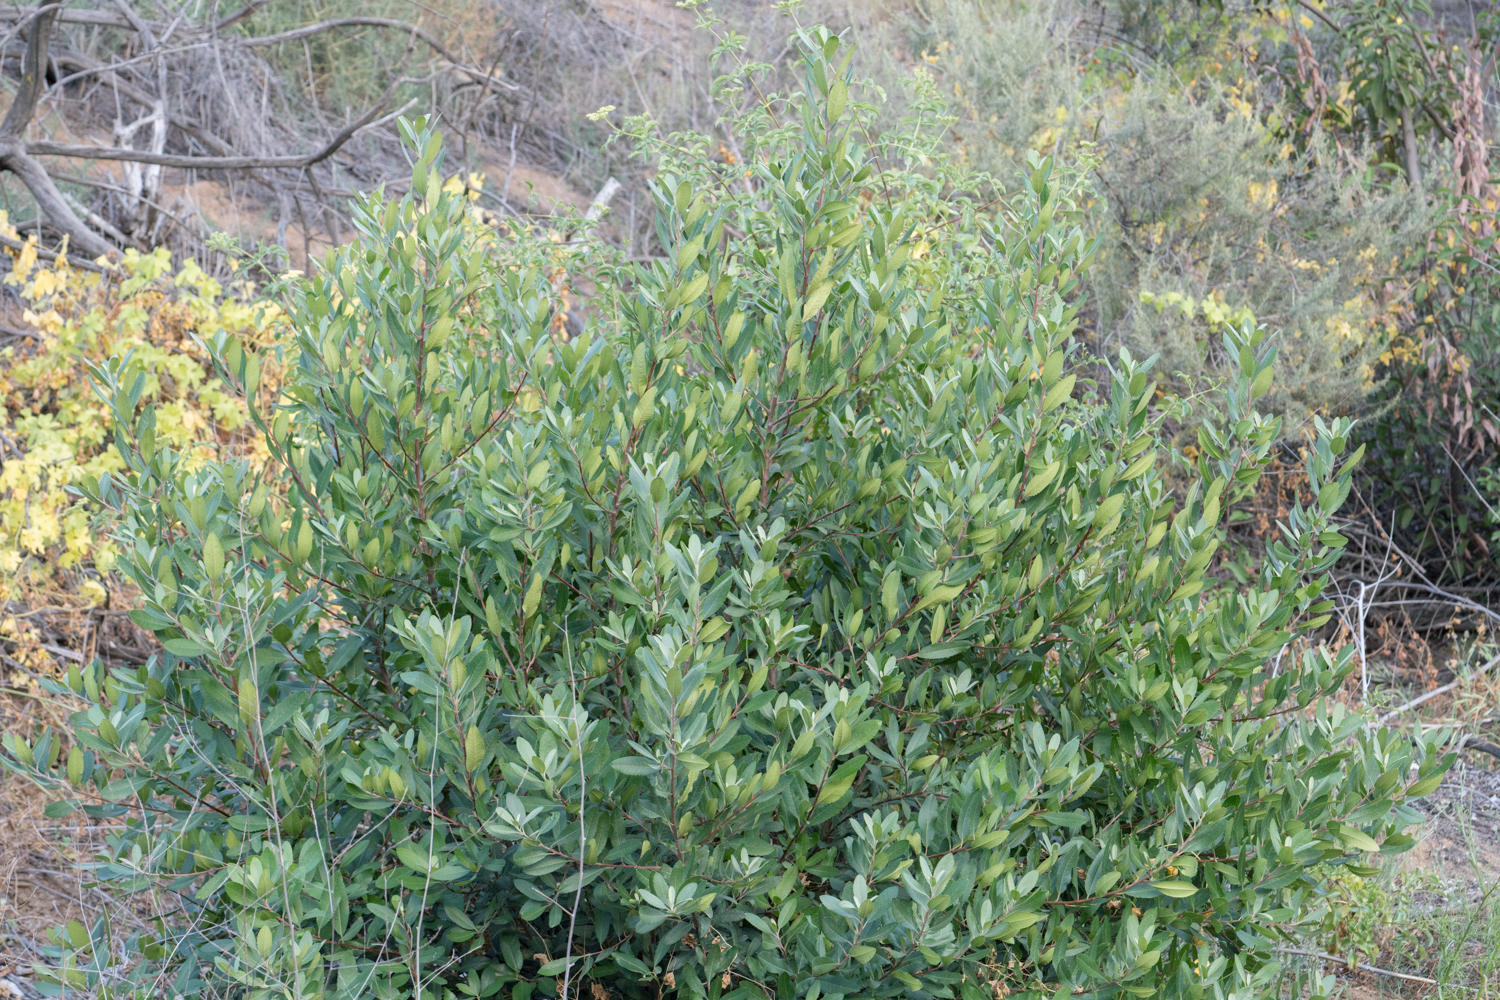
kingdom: Plantae
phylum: Tracheophyta
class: Magnoliopsida
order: Rosales
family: Rosaceae
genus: Heteromeles
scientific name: Heteromeles arbutifolia
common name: California-holly
